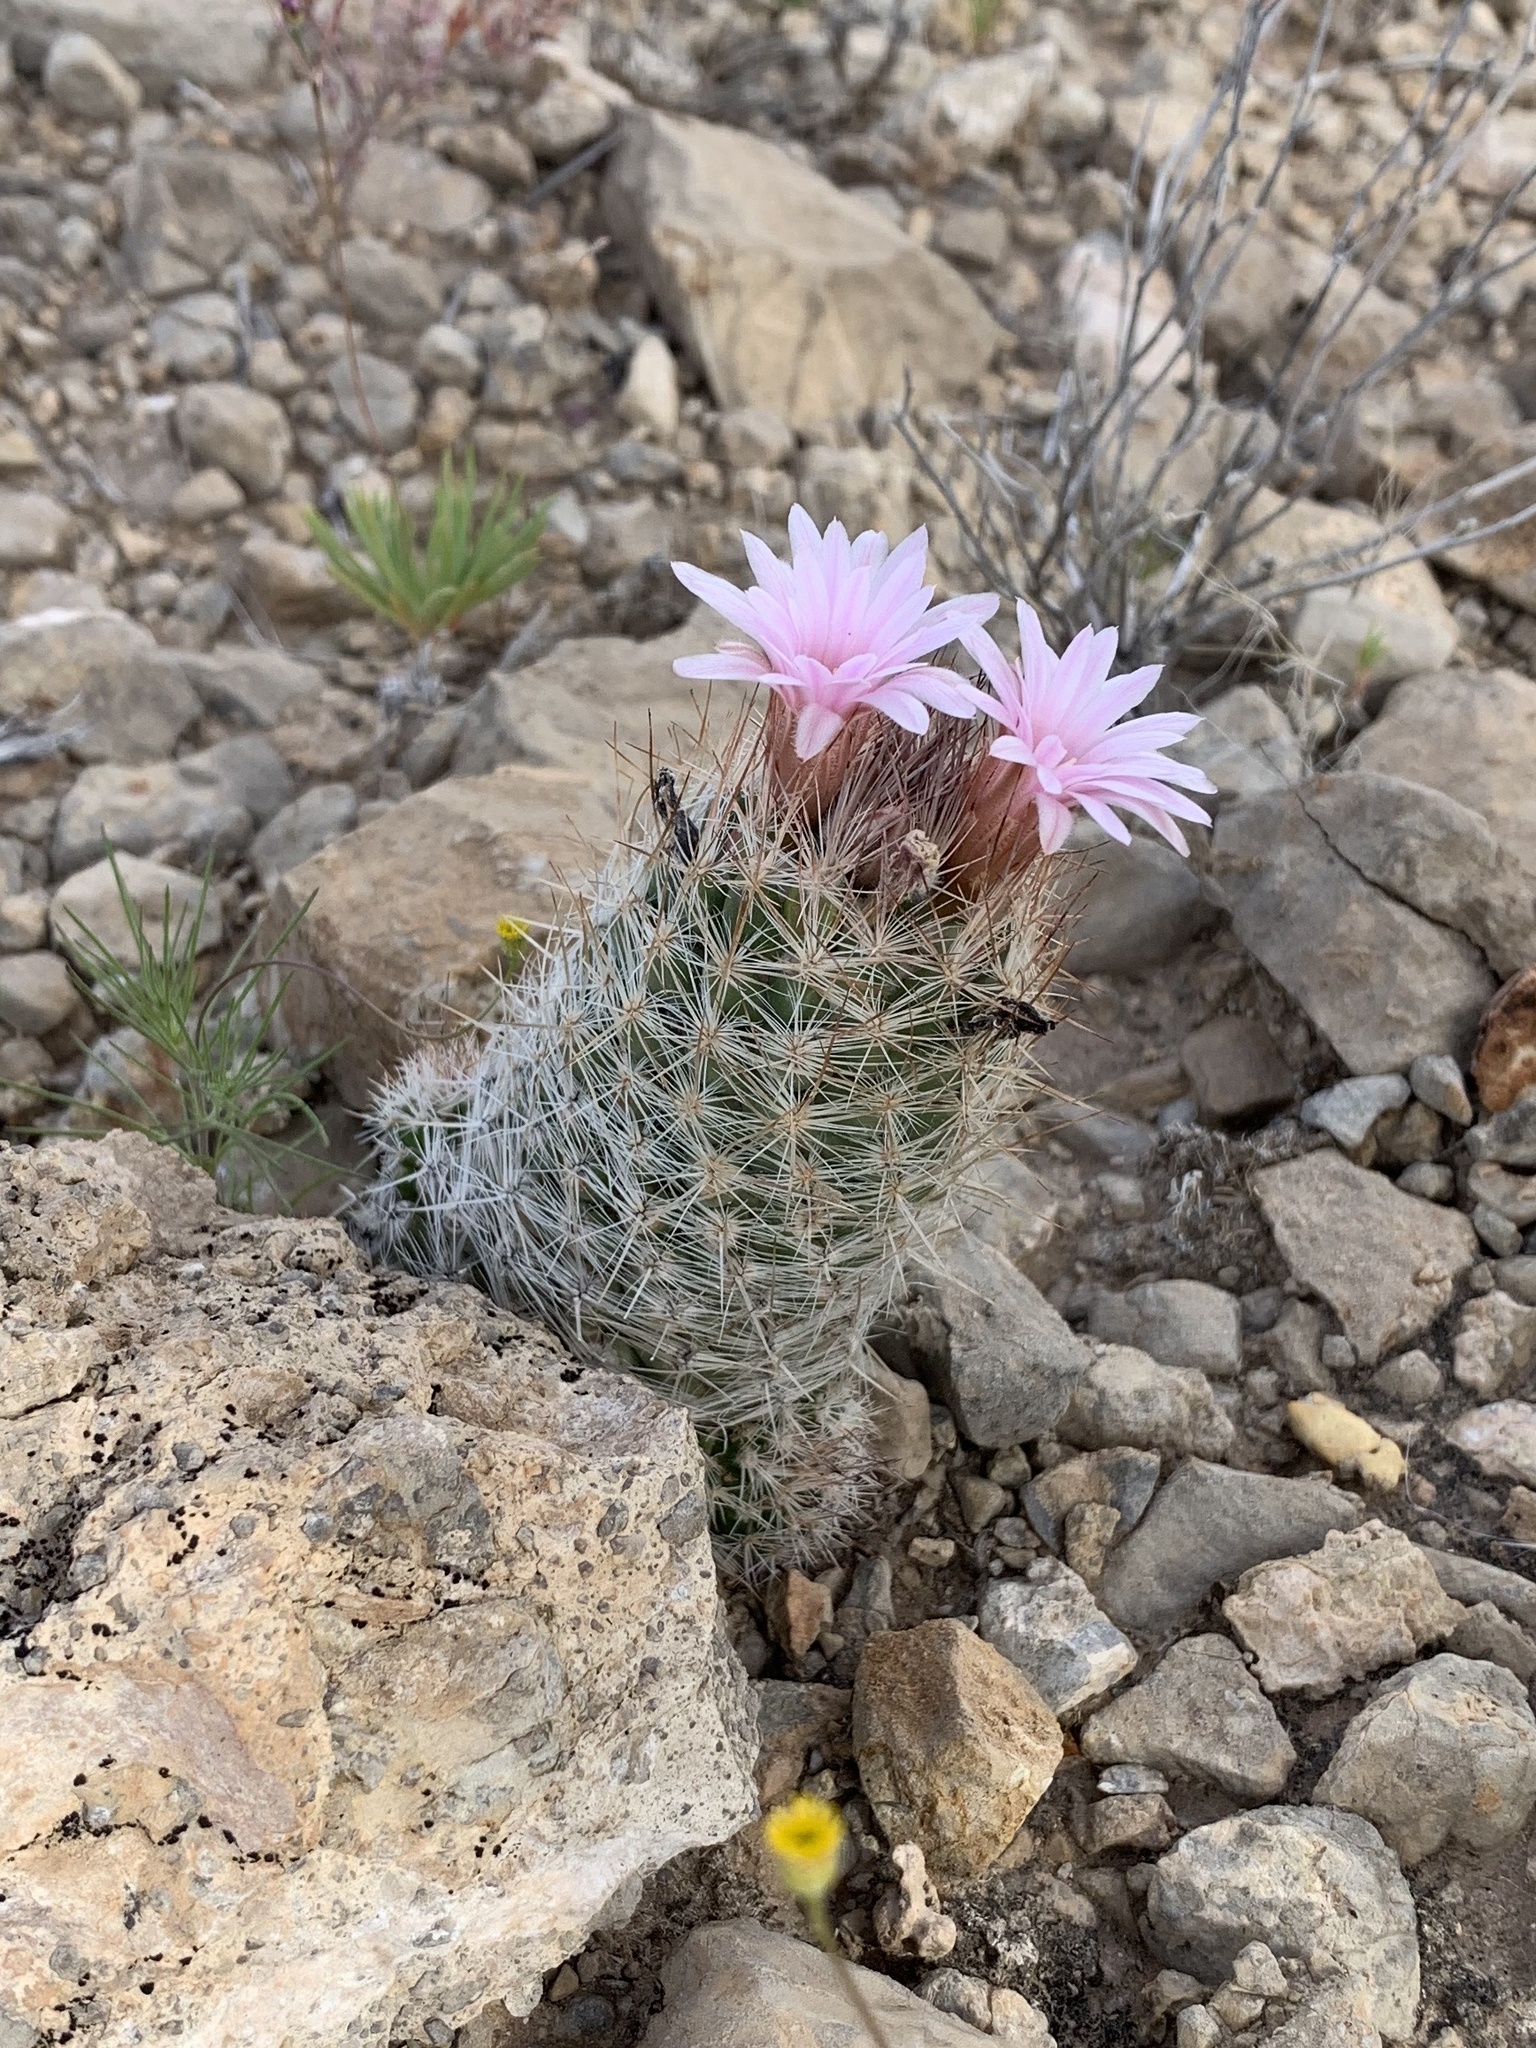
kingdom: Plantae
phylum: Tracheophyta
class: Magnoliopsida
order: Caryophyllales
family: Cactaceae
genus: Pelecyphora
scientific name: Pelecyphora tuberculosa
